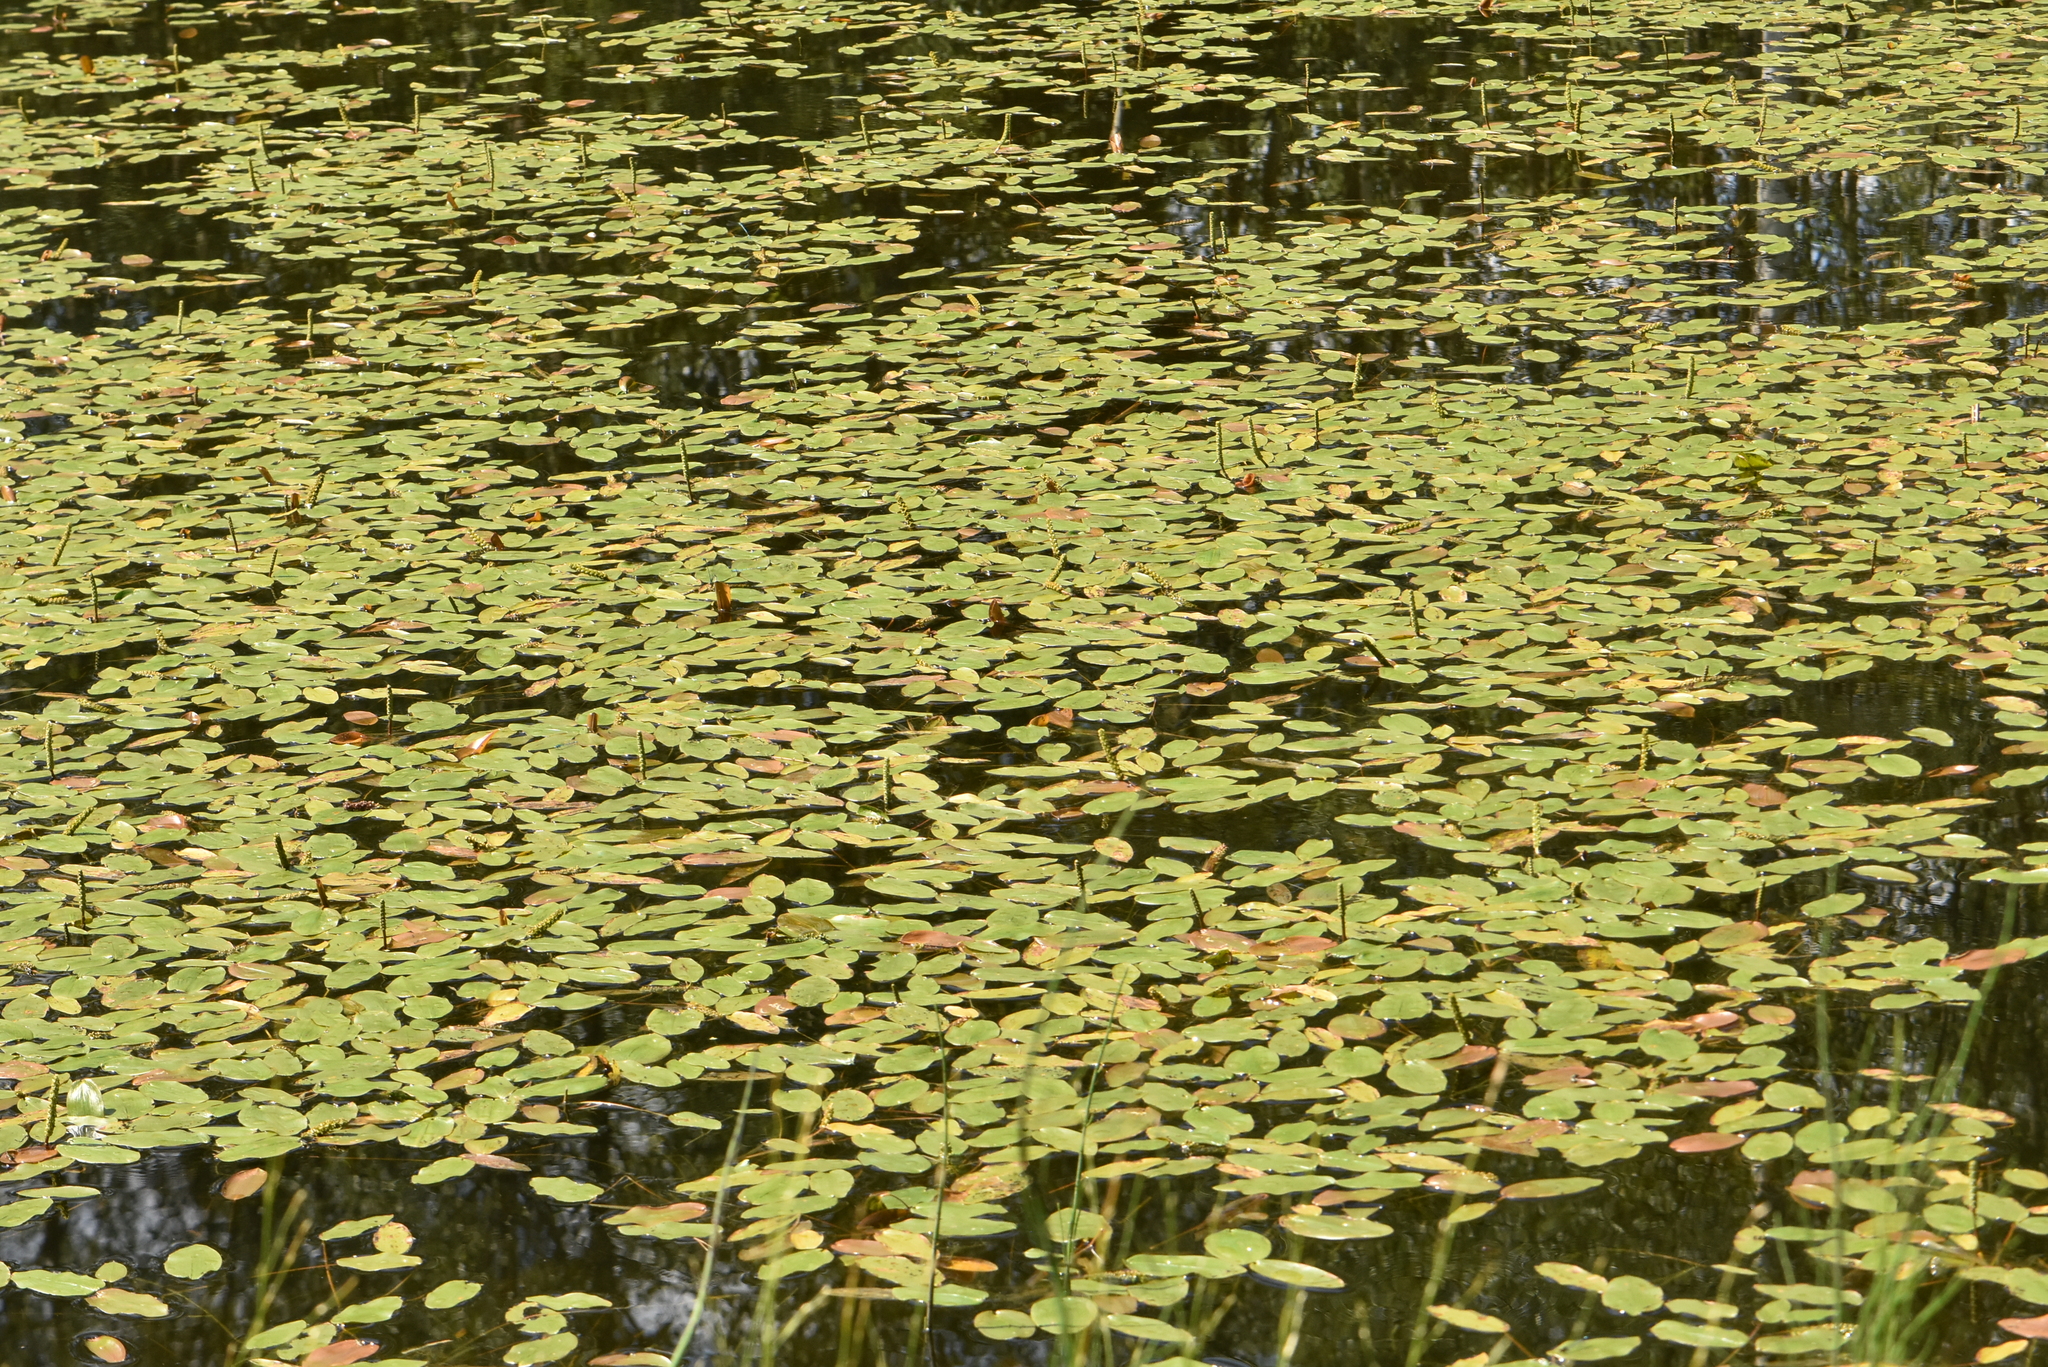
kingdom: Plantae
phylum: Tracheophyta
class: Liliopsida
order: Alismatales
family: Potamogetonaceae
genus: Potamogeton
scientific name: Potamogeton natans
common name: Broad-leaved pondweed
